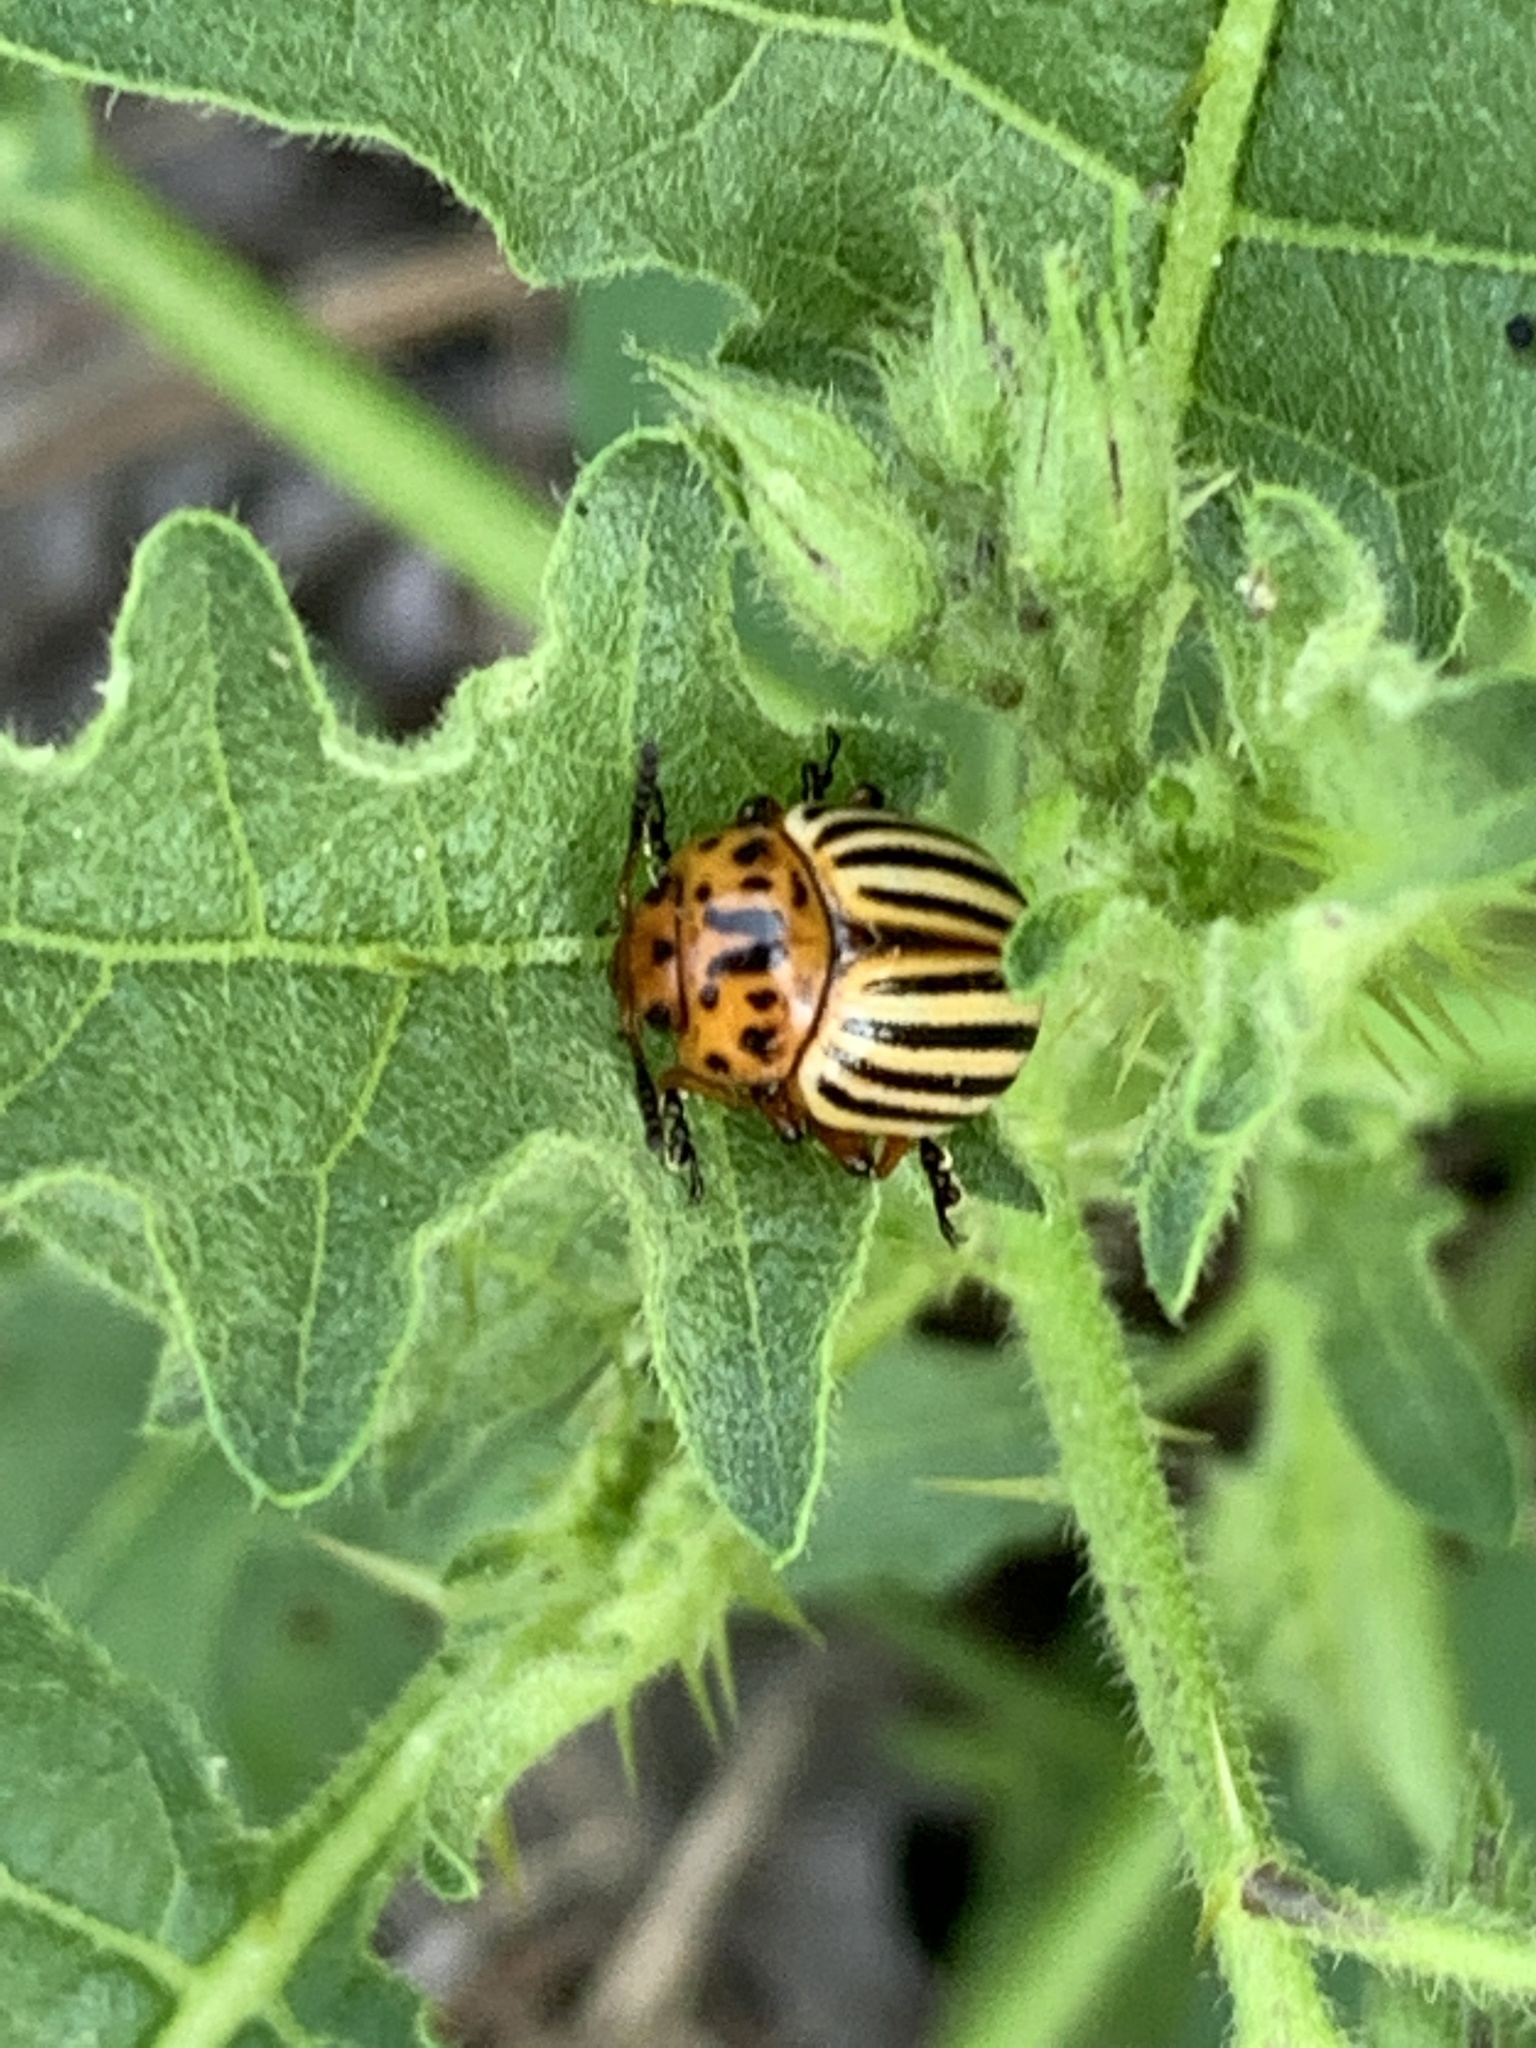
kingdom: Animalia
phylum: Arthropoda
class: Insecta
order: Coleoptera
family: Chrysomelidae
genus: Leptinotarsa
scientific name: Leptinotarsa decemlineata
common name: Colorado potato beetle
